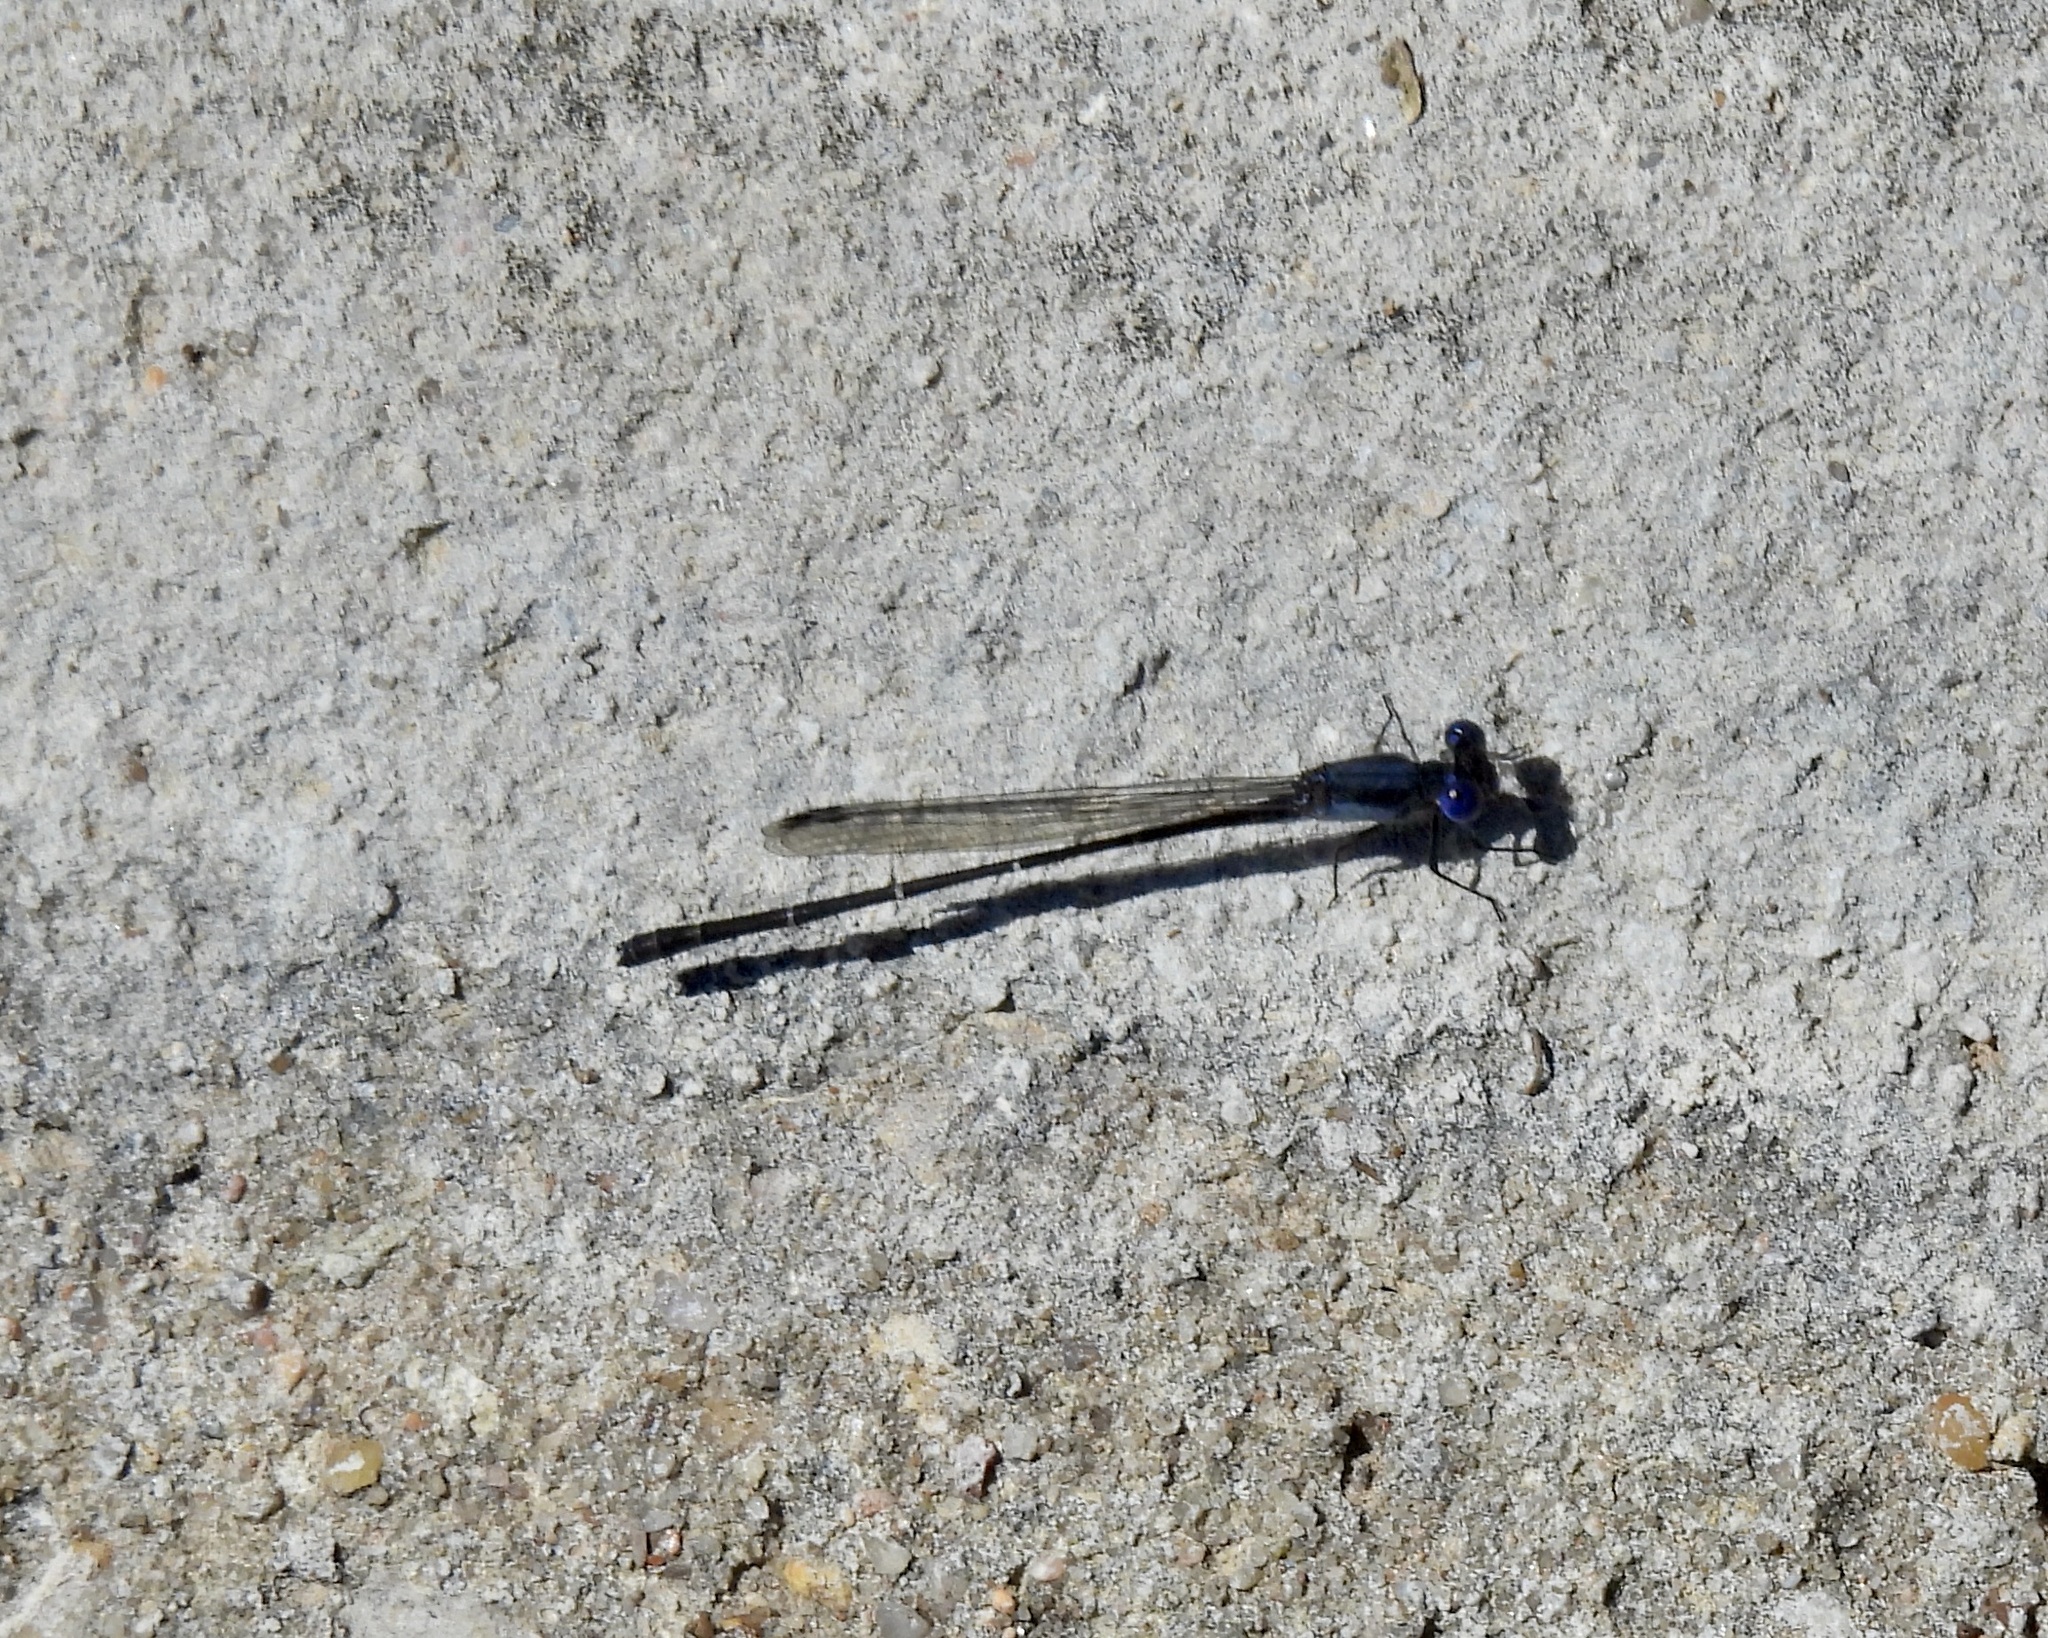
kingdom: Animalia
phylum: Arthropoda
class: Insecta
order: Odonata
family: Coenagrionidae
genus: Argia
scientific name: Argia translata
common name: Dusky dancer
